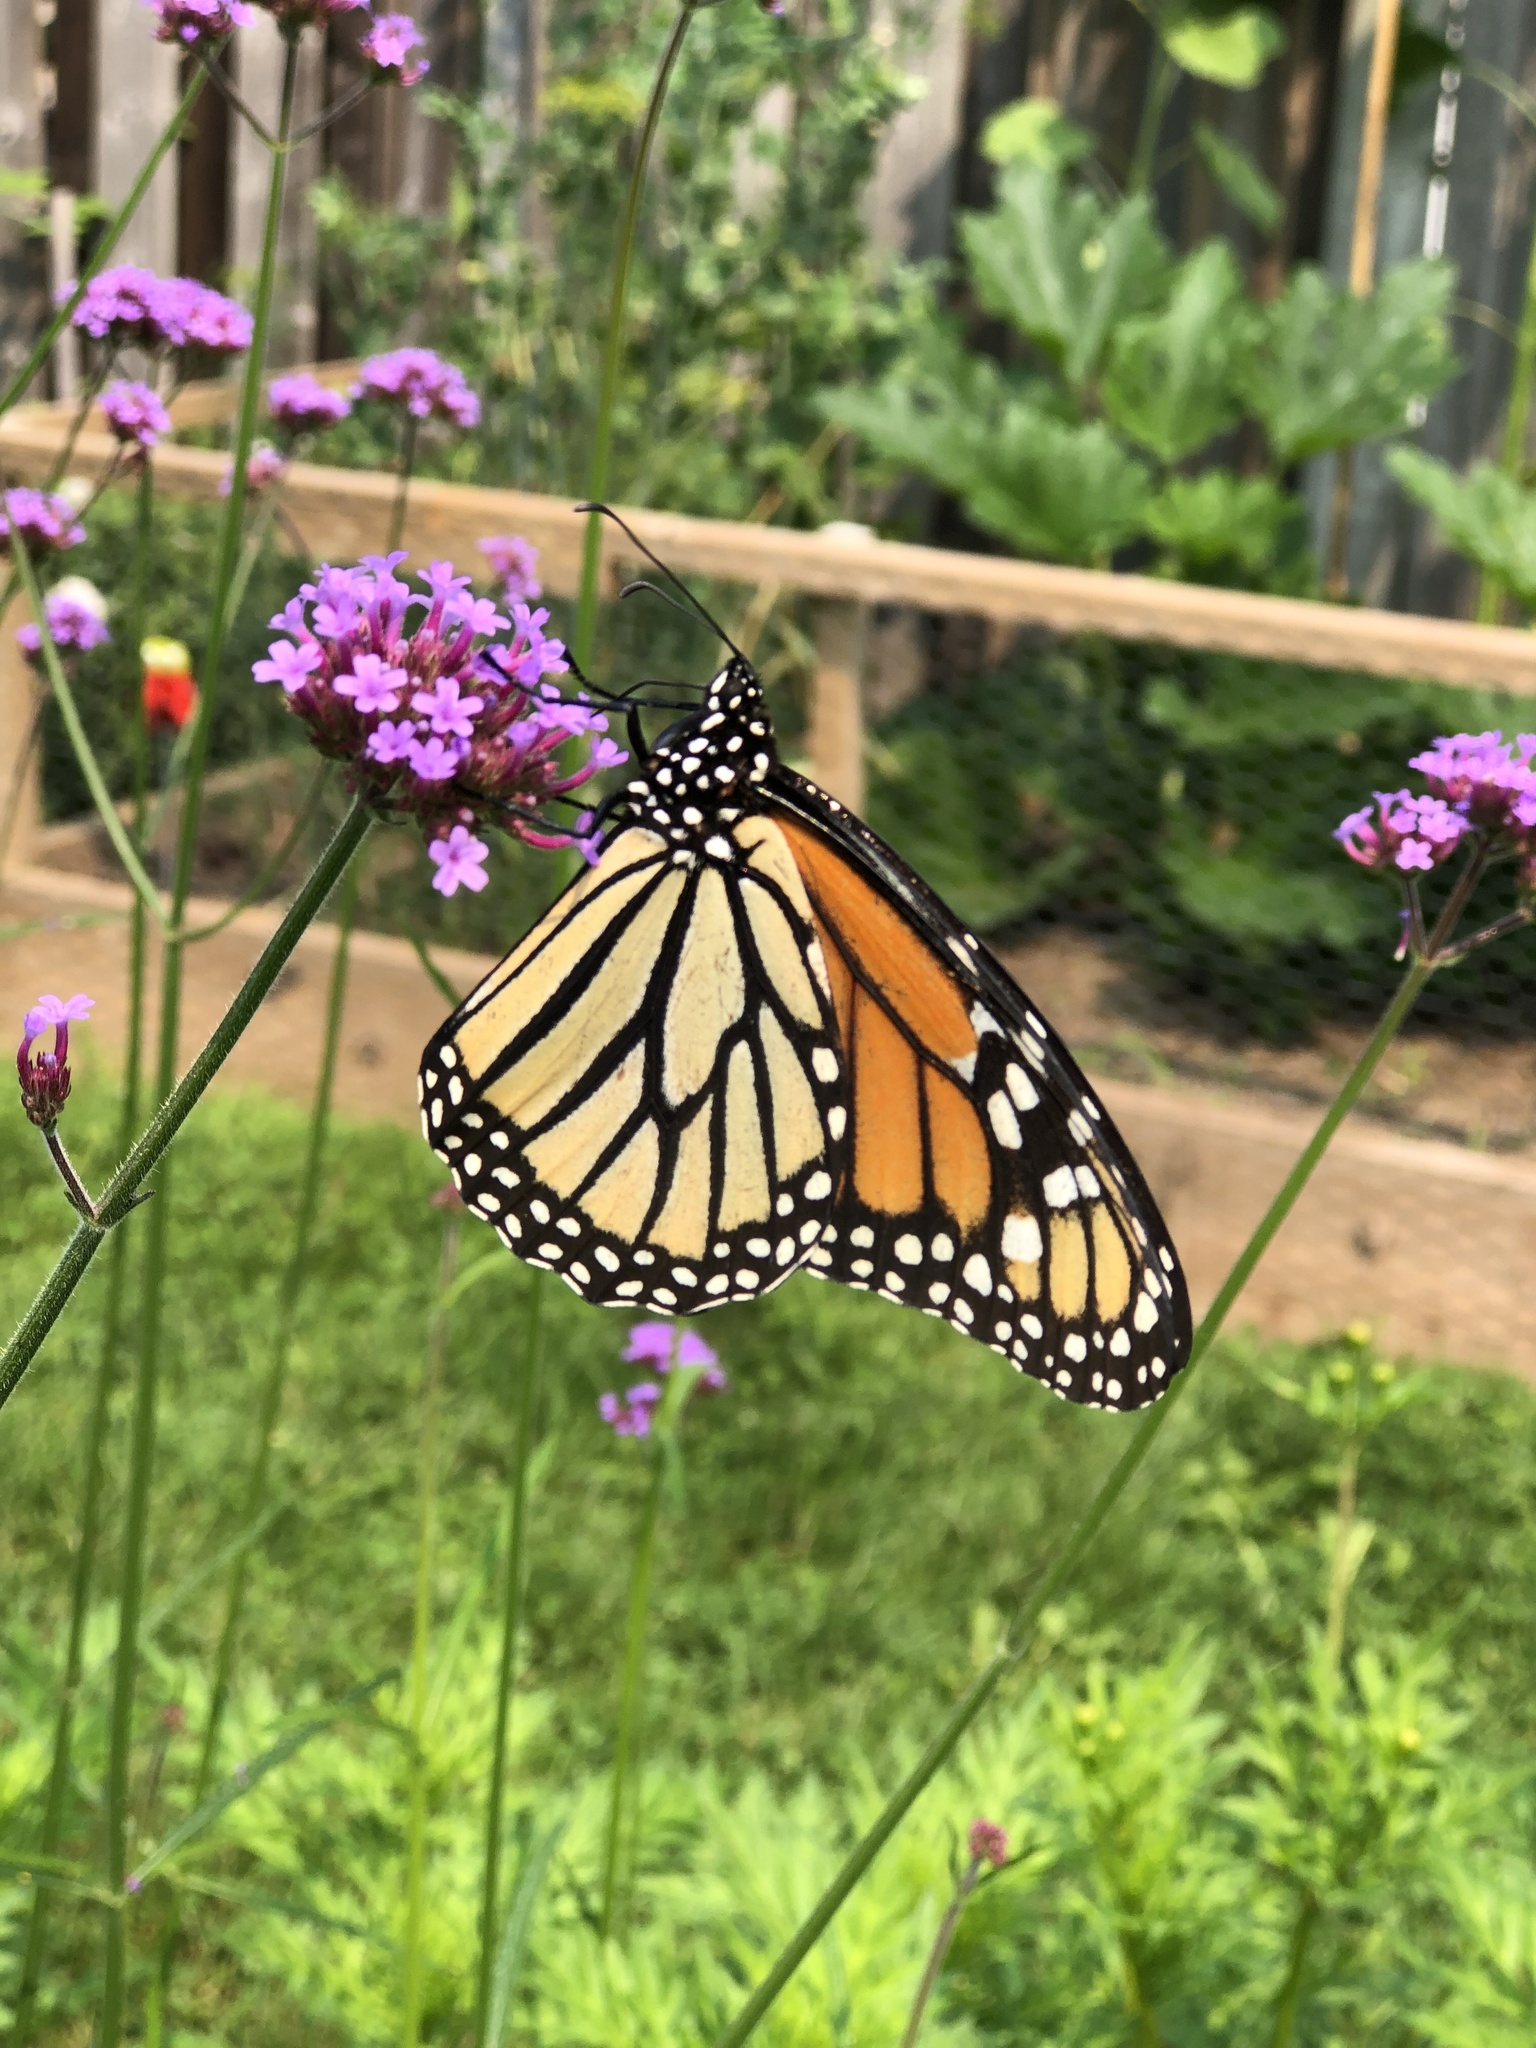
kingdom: Animalia
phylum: Arthropoda
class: Insecta
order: Lepidoptera
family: Nymphalidae
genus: Danaus
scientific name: Danaus plexippus
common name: Monarch
